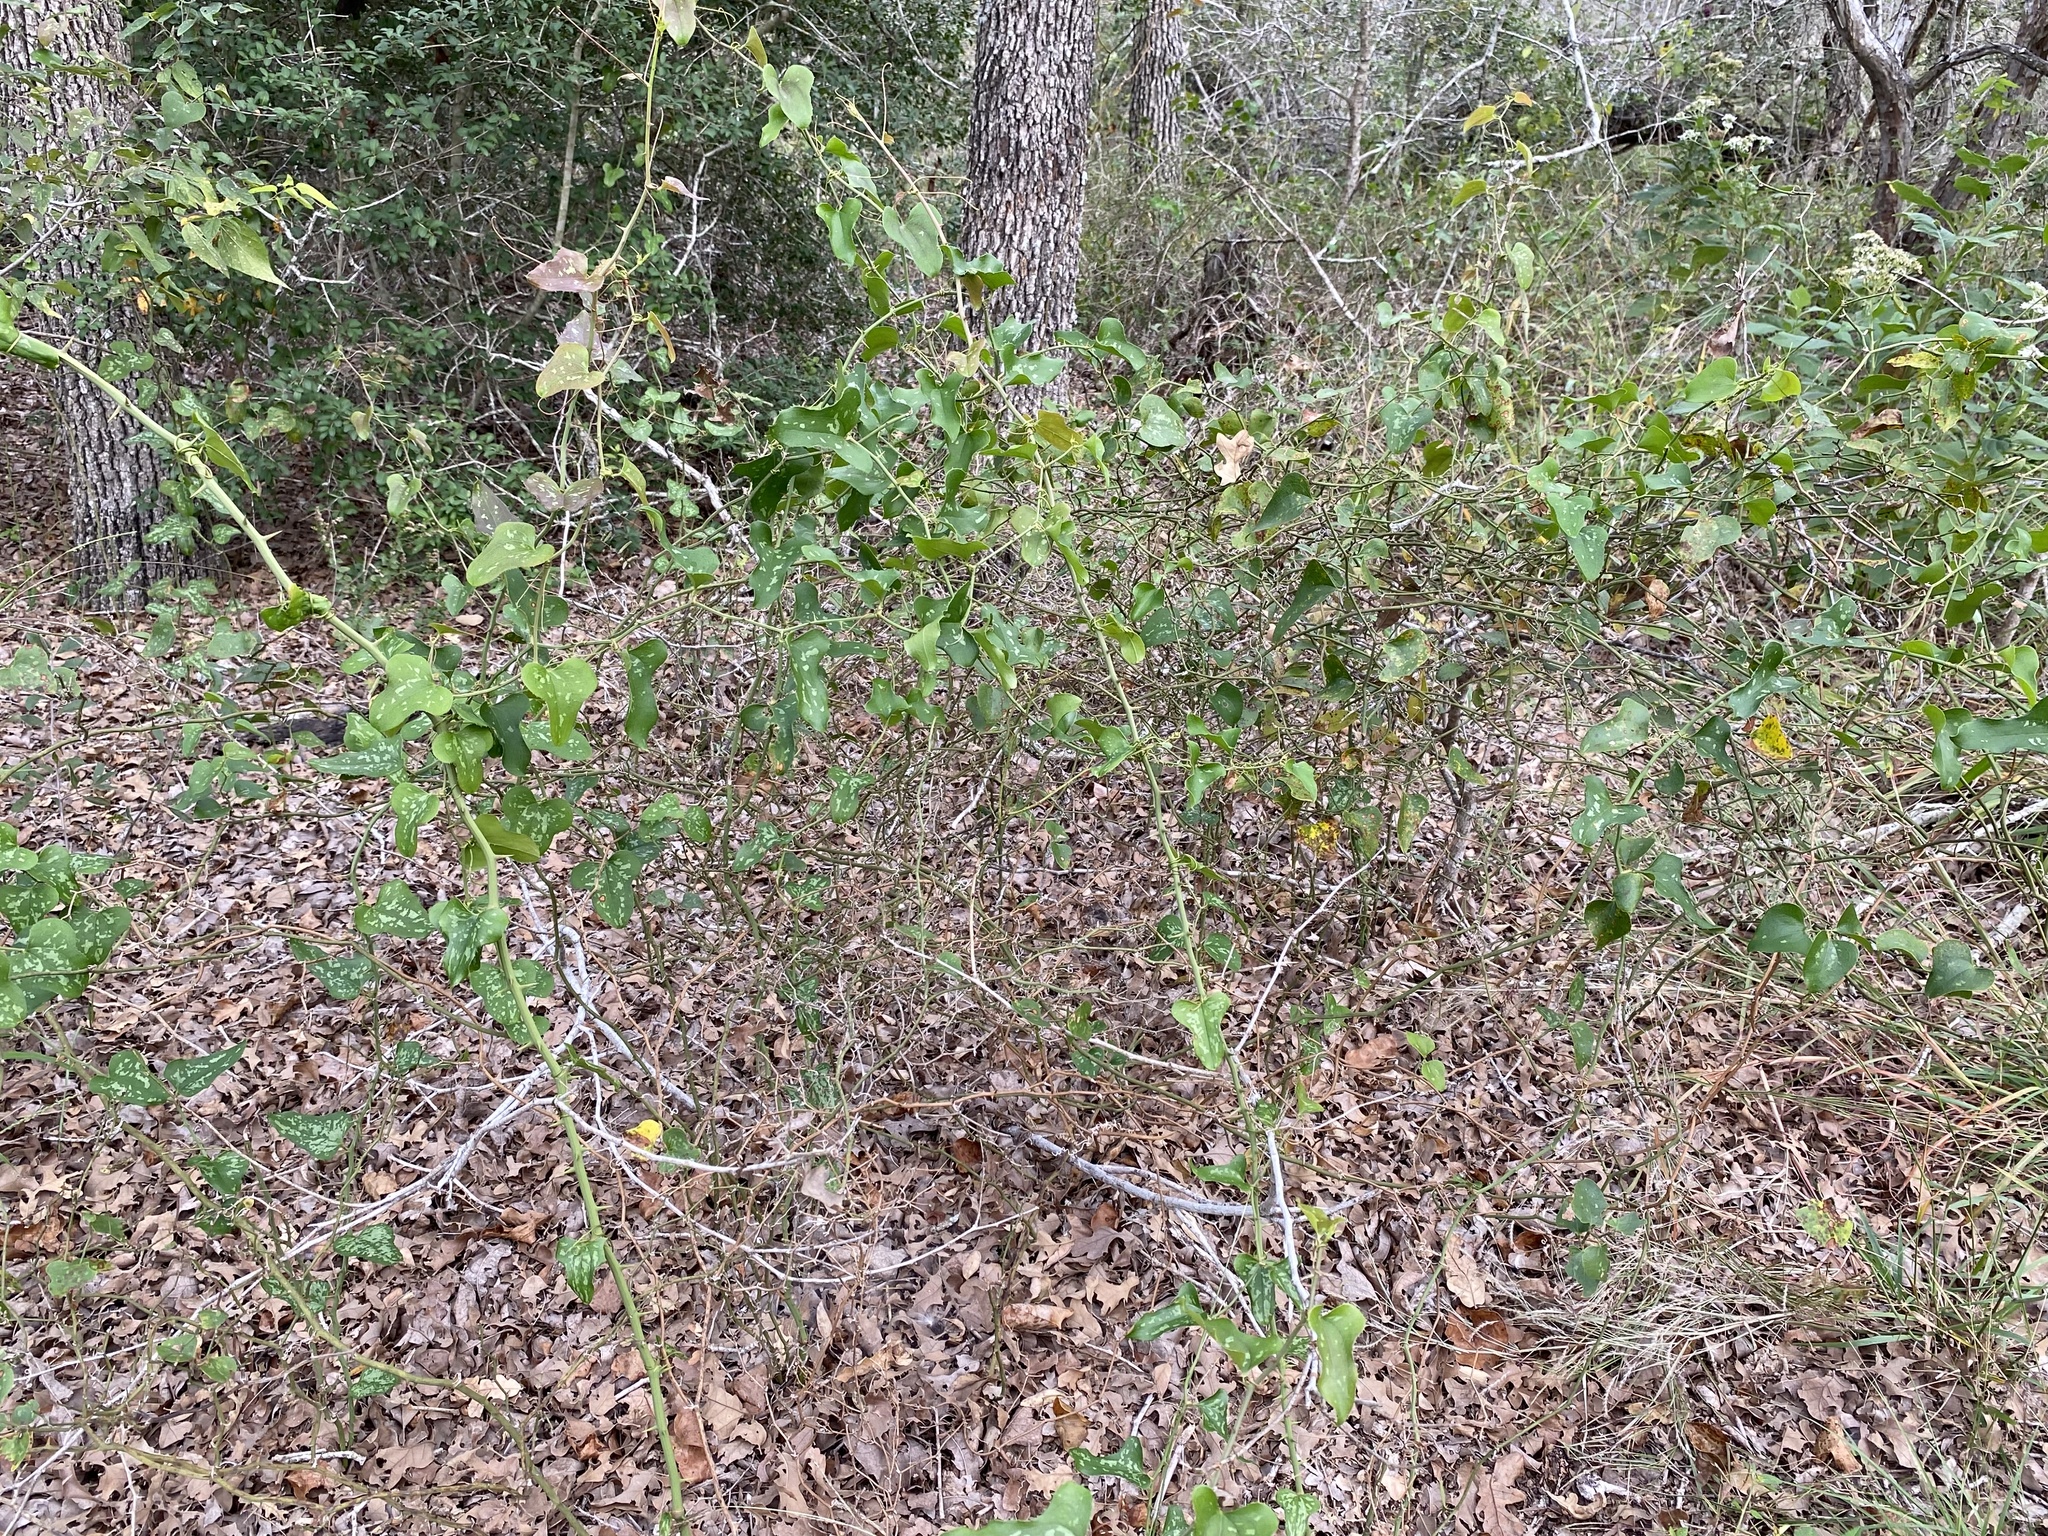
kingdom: Plantae
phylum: Tracheophyta
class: Liliopsida
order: Liliales
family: Smilacaceae
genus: Smilax
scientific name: Smilax bona-nox
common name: Catbrier
